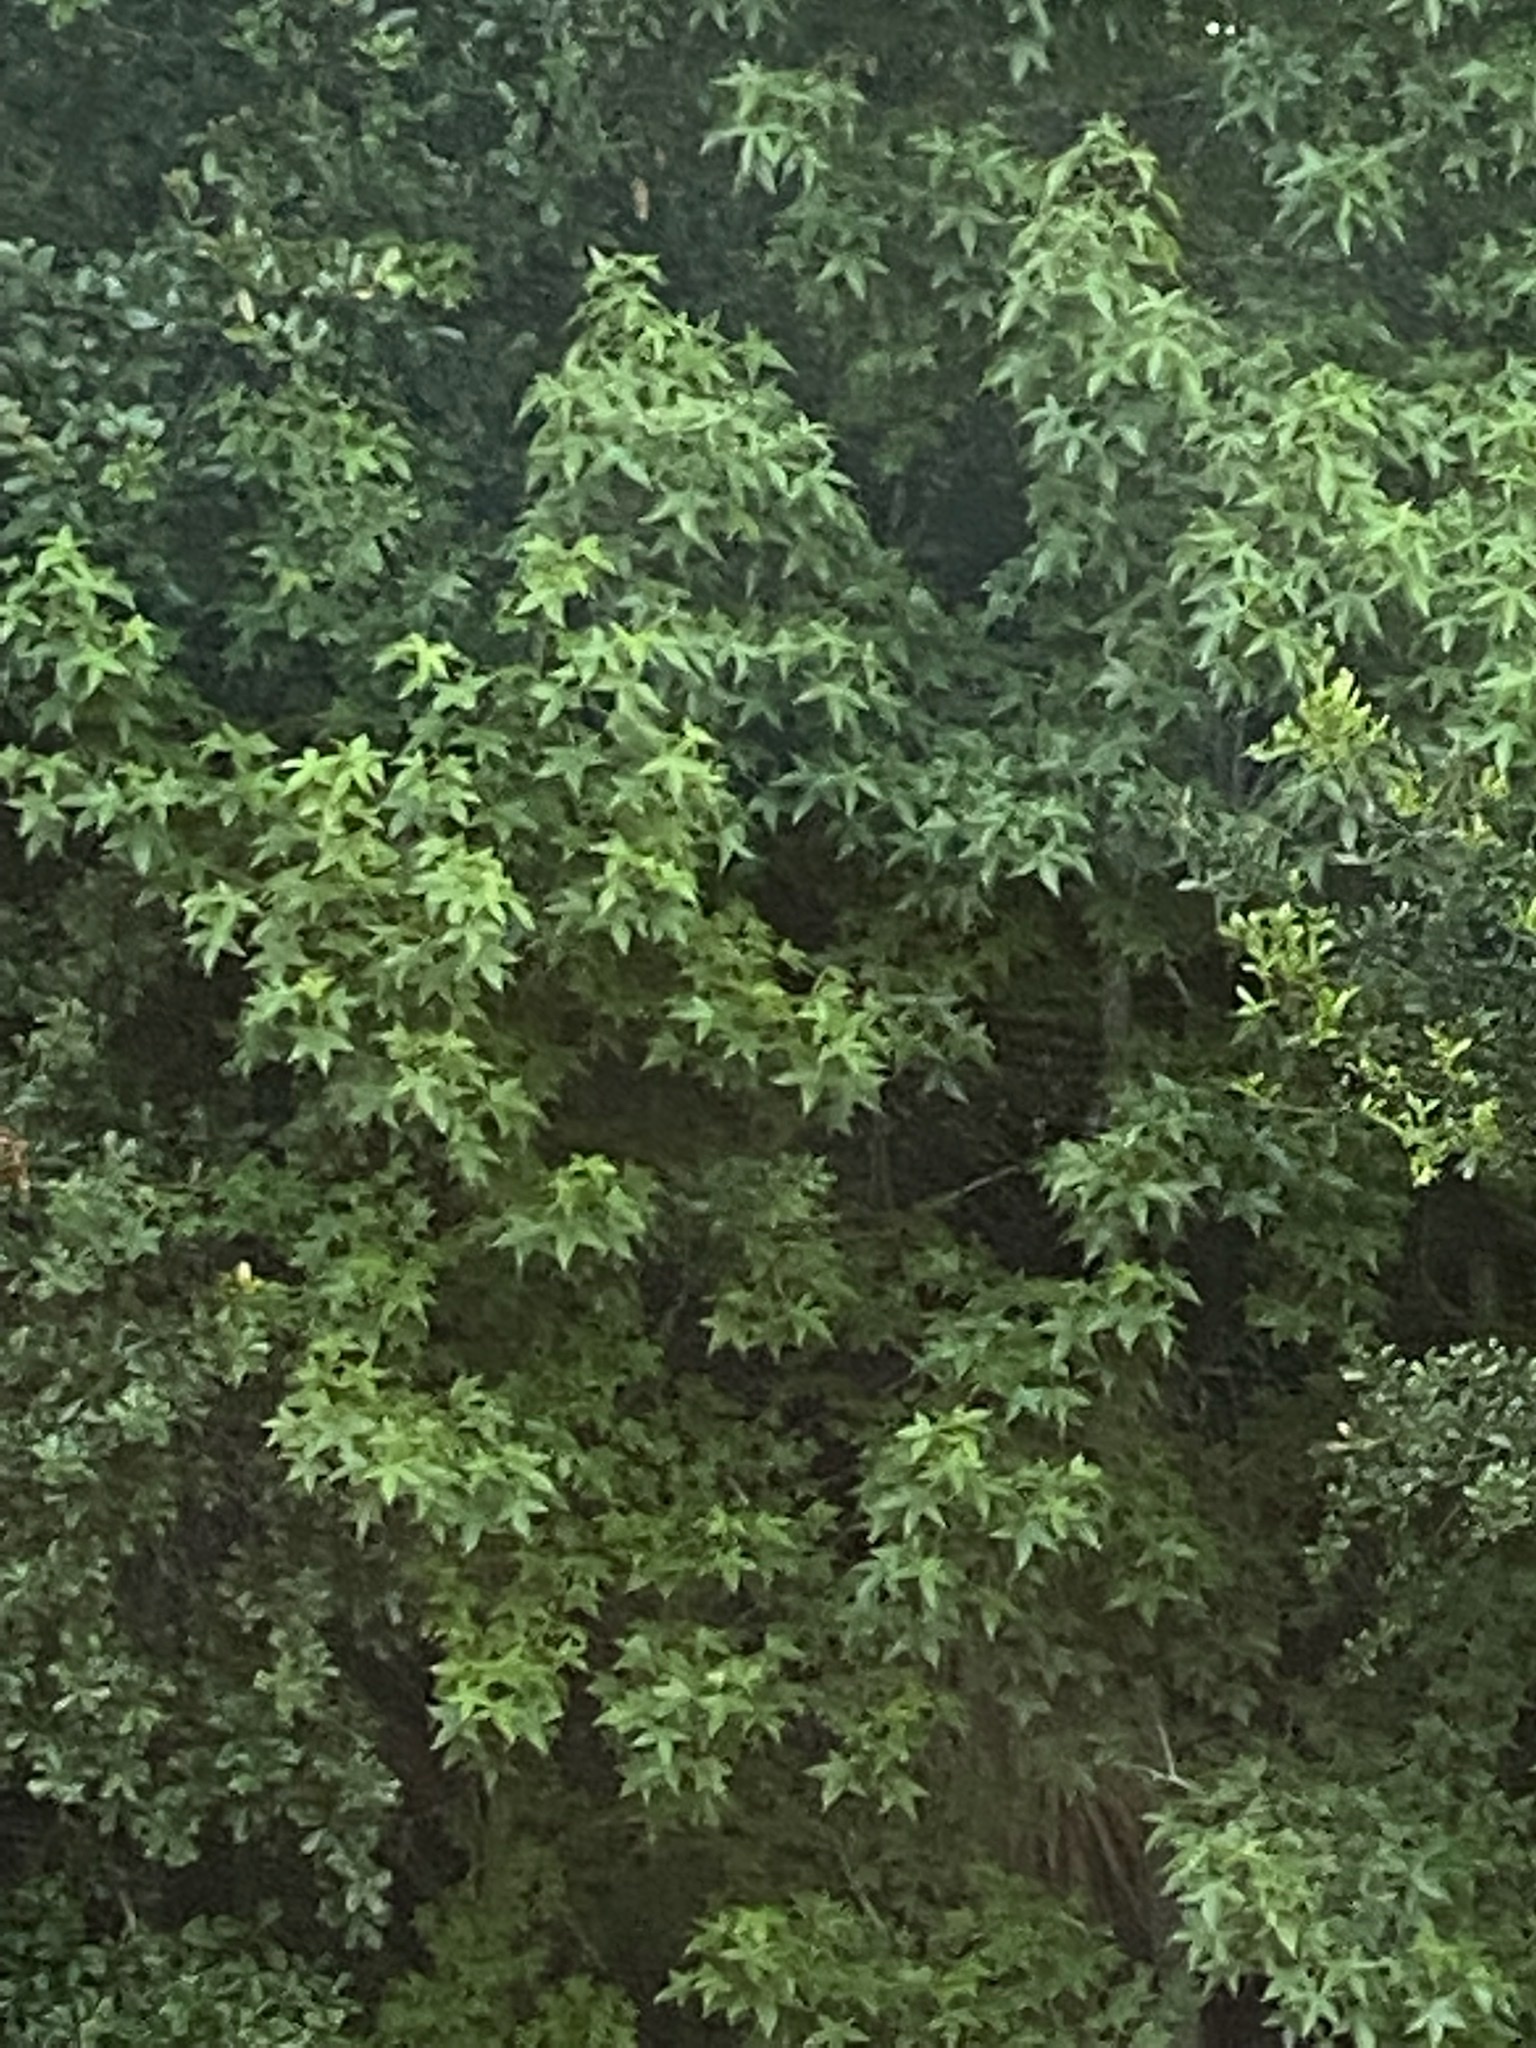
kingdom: Plantae
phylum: Tracheophyta
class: Magnoliopsida
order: Saxifragales
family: Altingiaceae
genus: Liquidambar
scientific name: Liquidambar styraciflua
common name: Sweet gum
